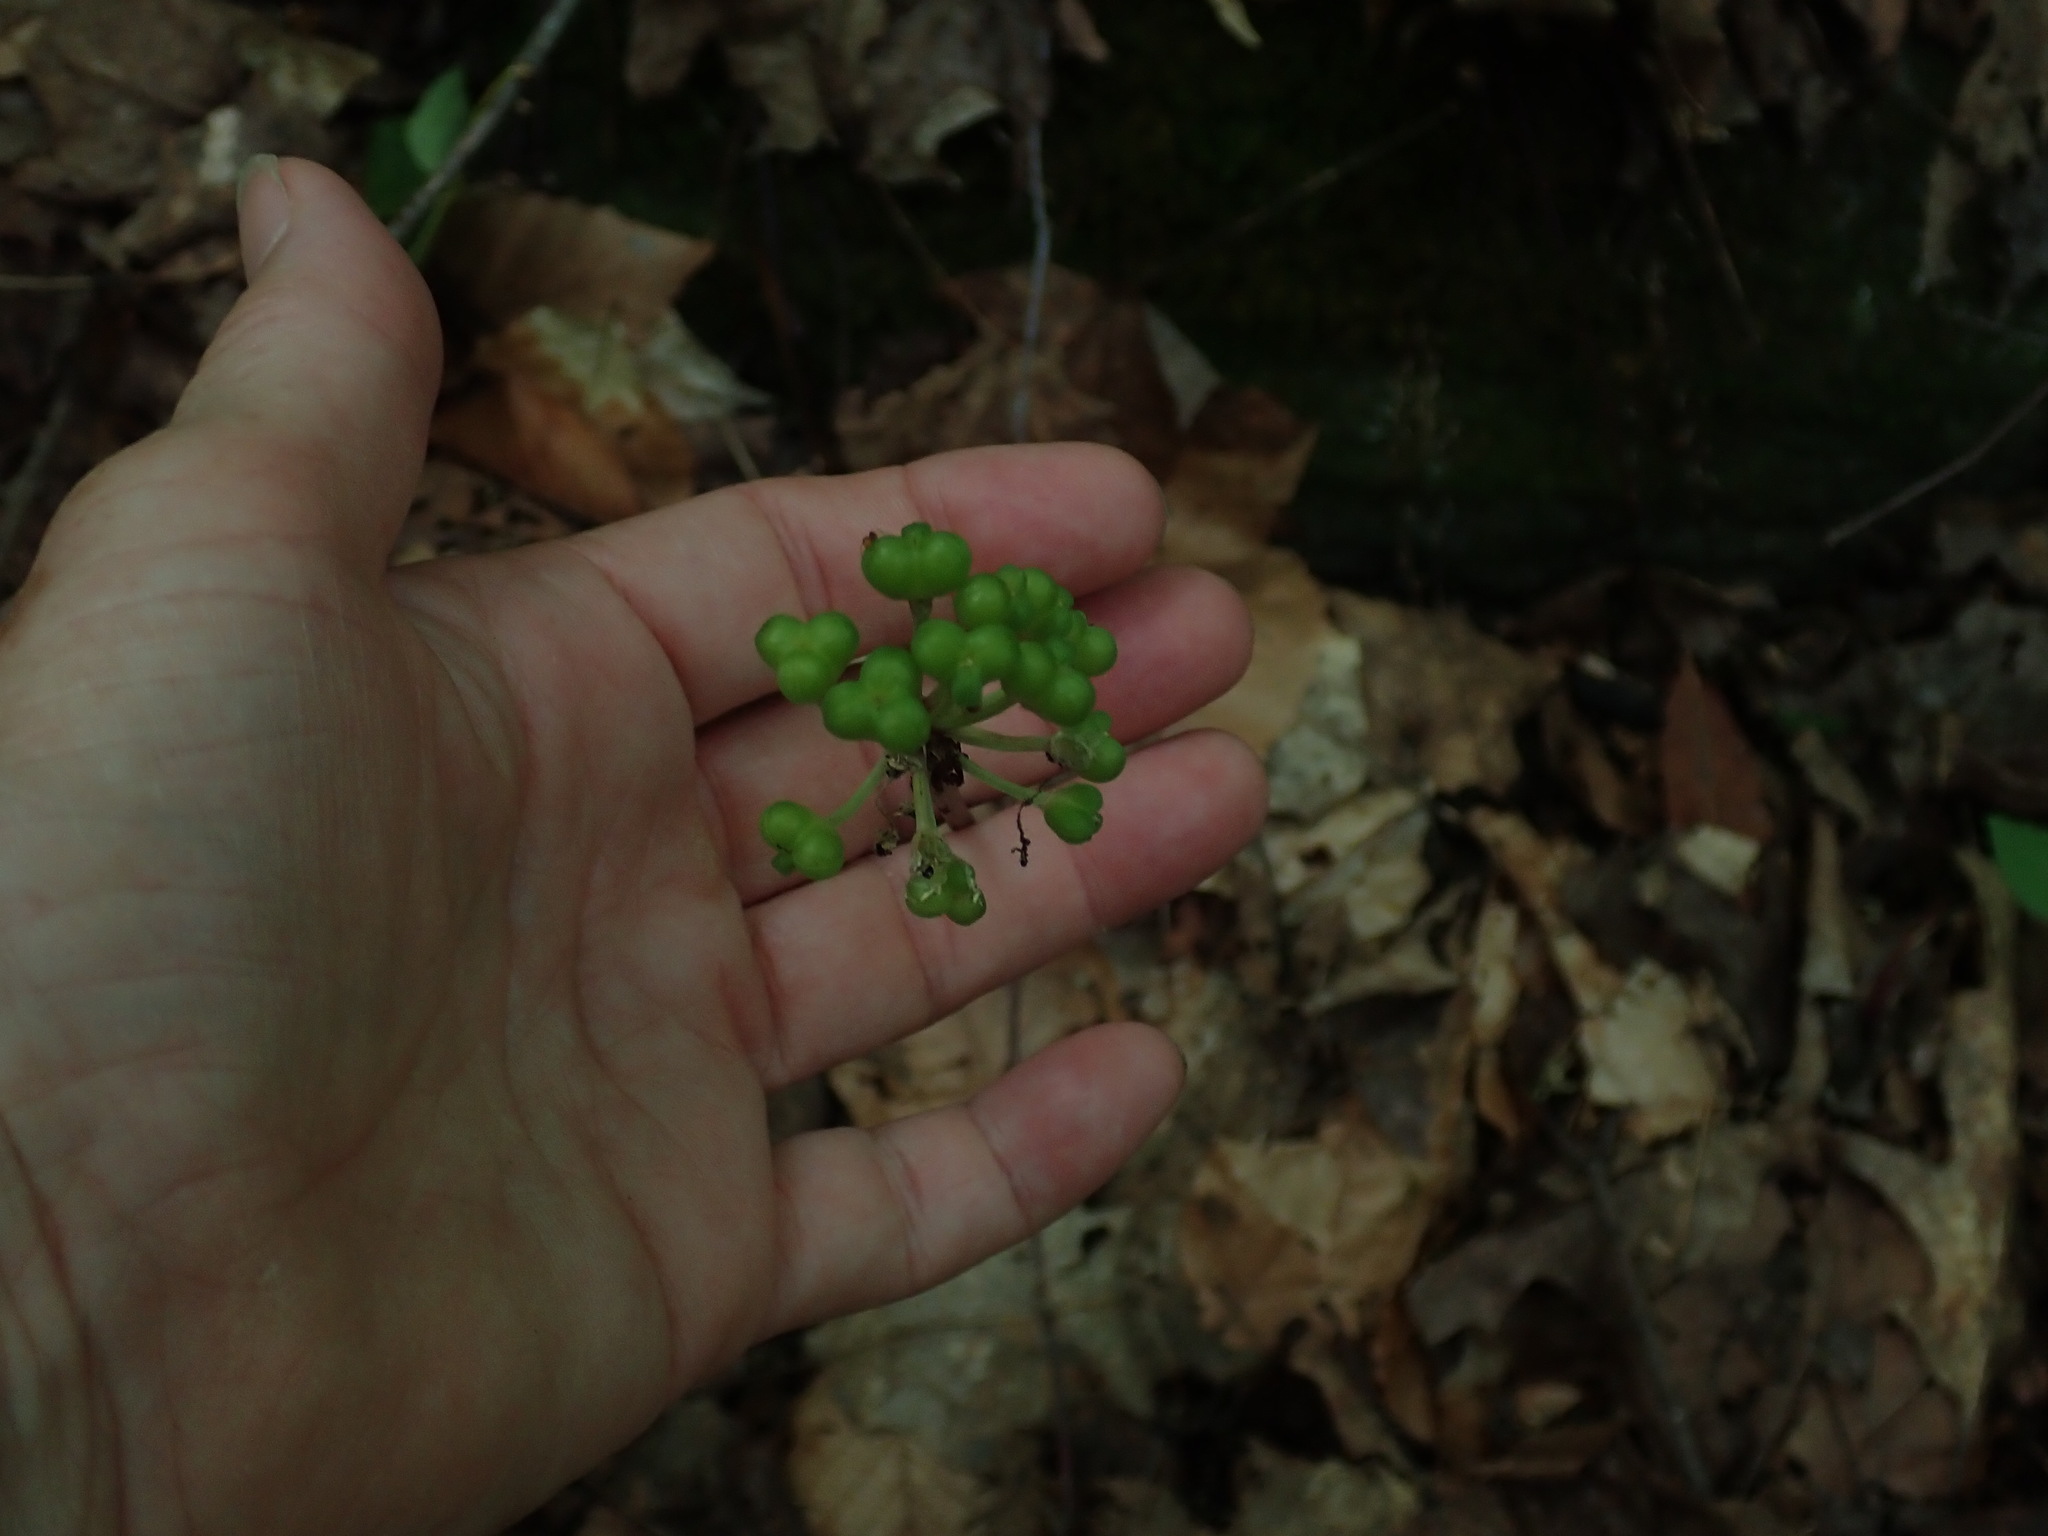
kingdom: Plantae
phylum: Tracheophyta
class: Liliopsida
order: Asparagales
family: Amaryllidaceae
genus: Allium
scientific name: Allium tricoccum
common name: Ramp
